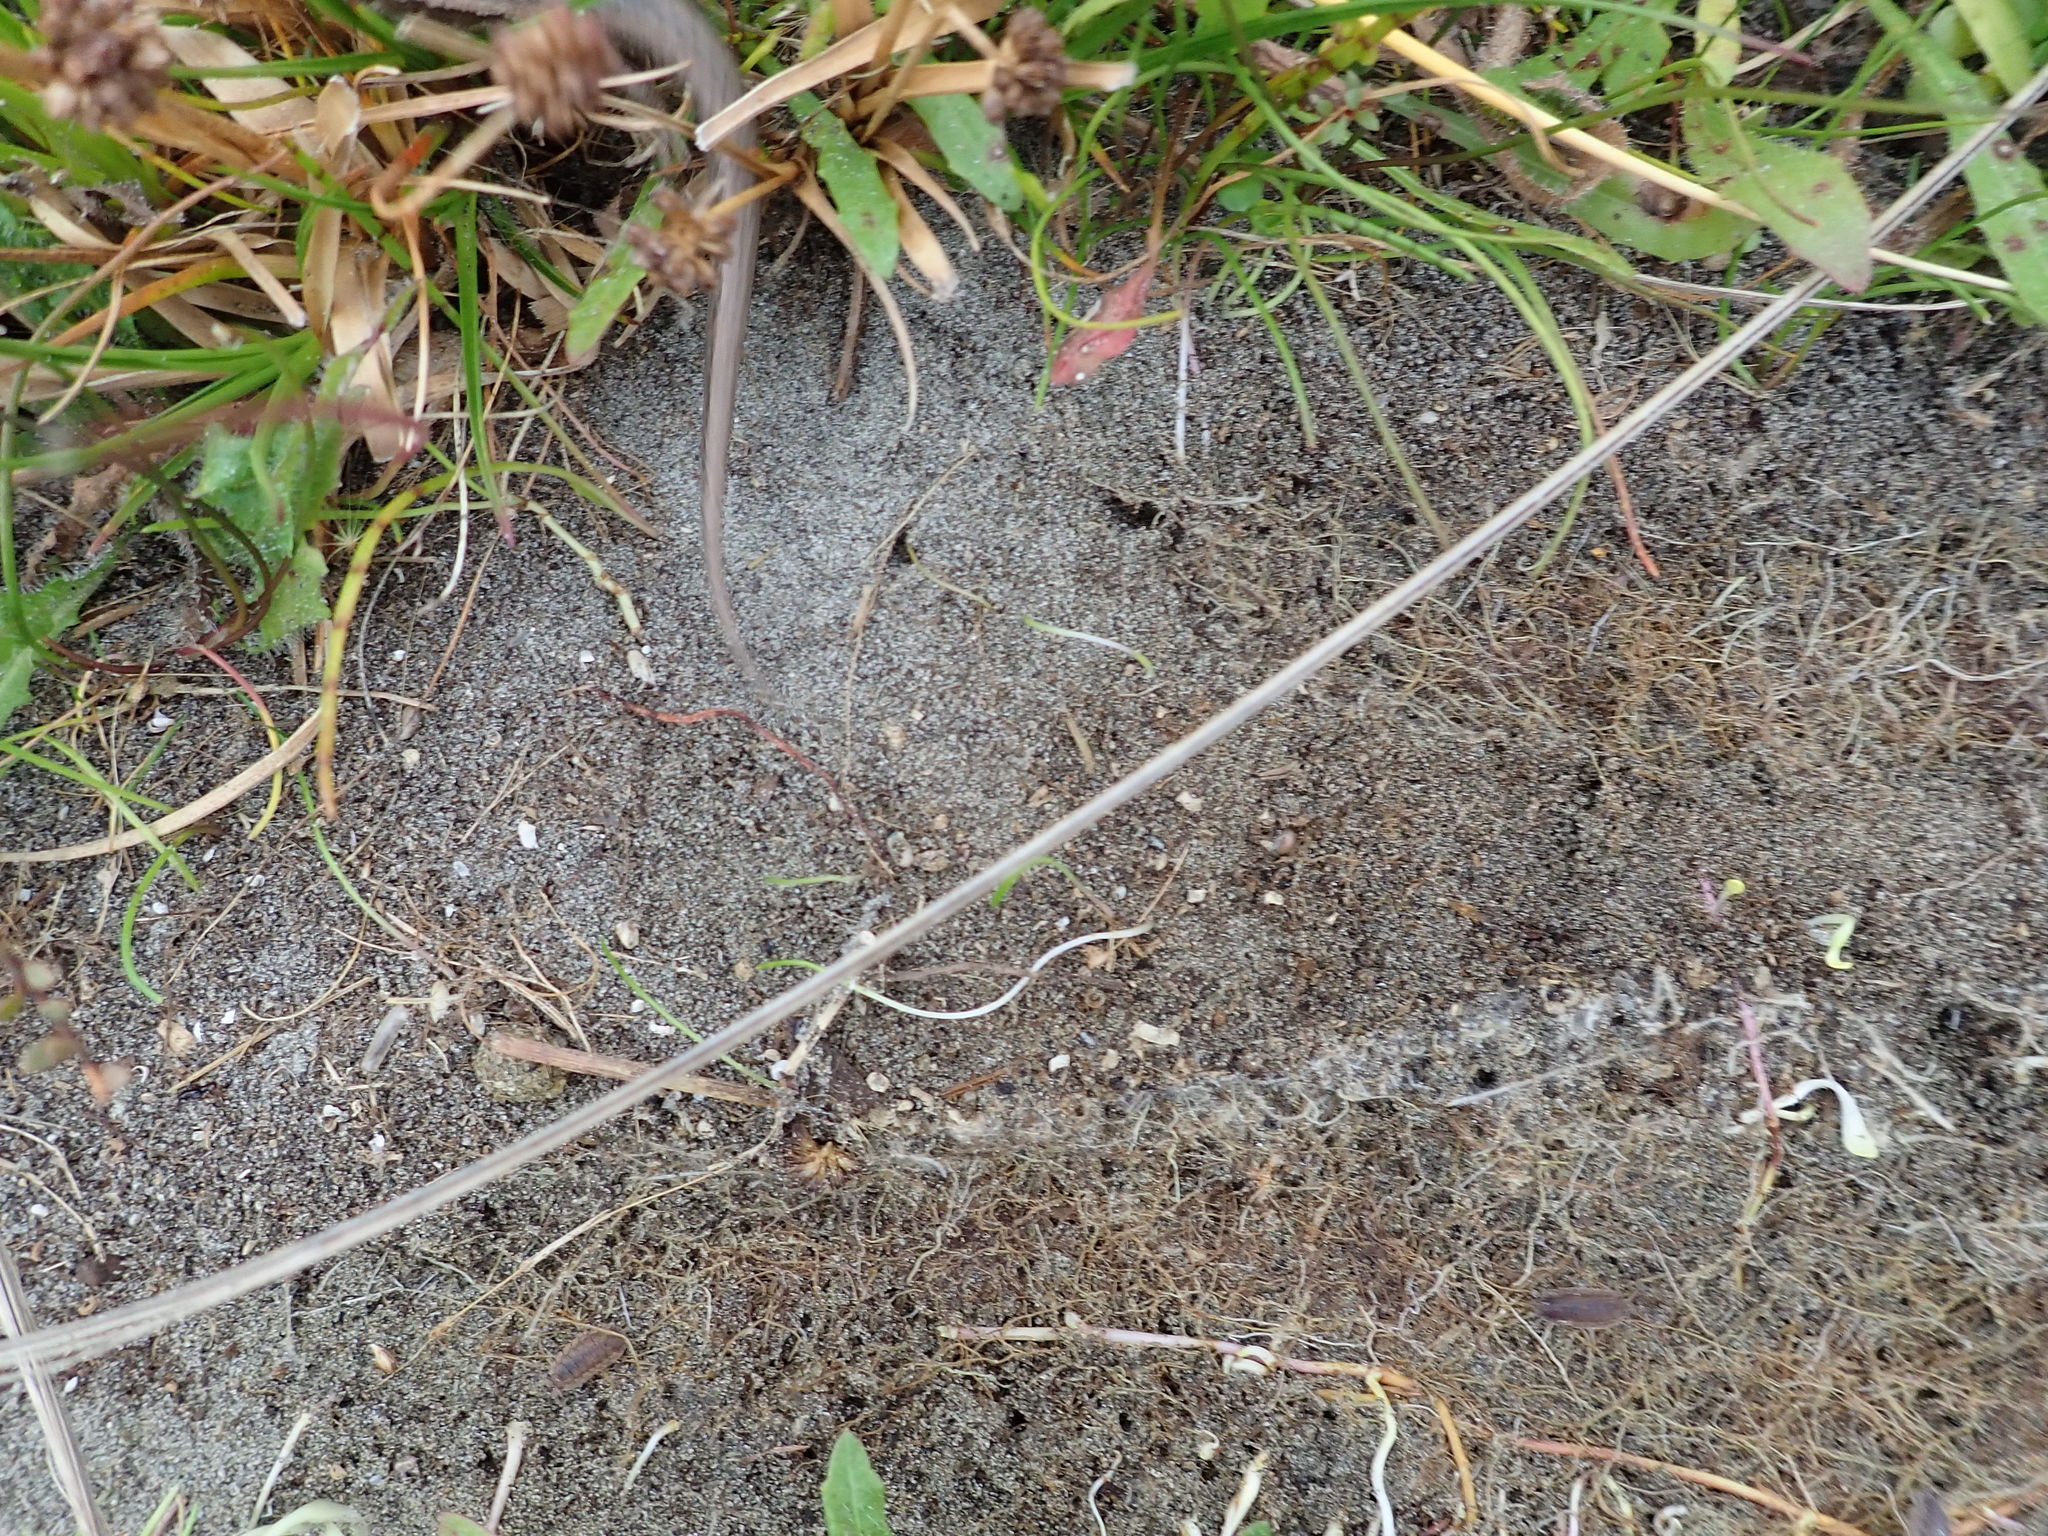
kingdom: Animalia
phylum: Chordata
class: Squamata
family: Scincidae
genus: Oligosoma
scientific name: Oligosoma polychroma
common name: Common new zealand skink
